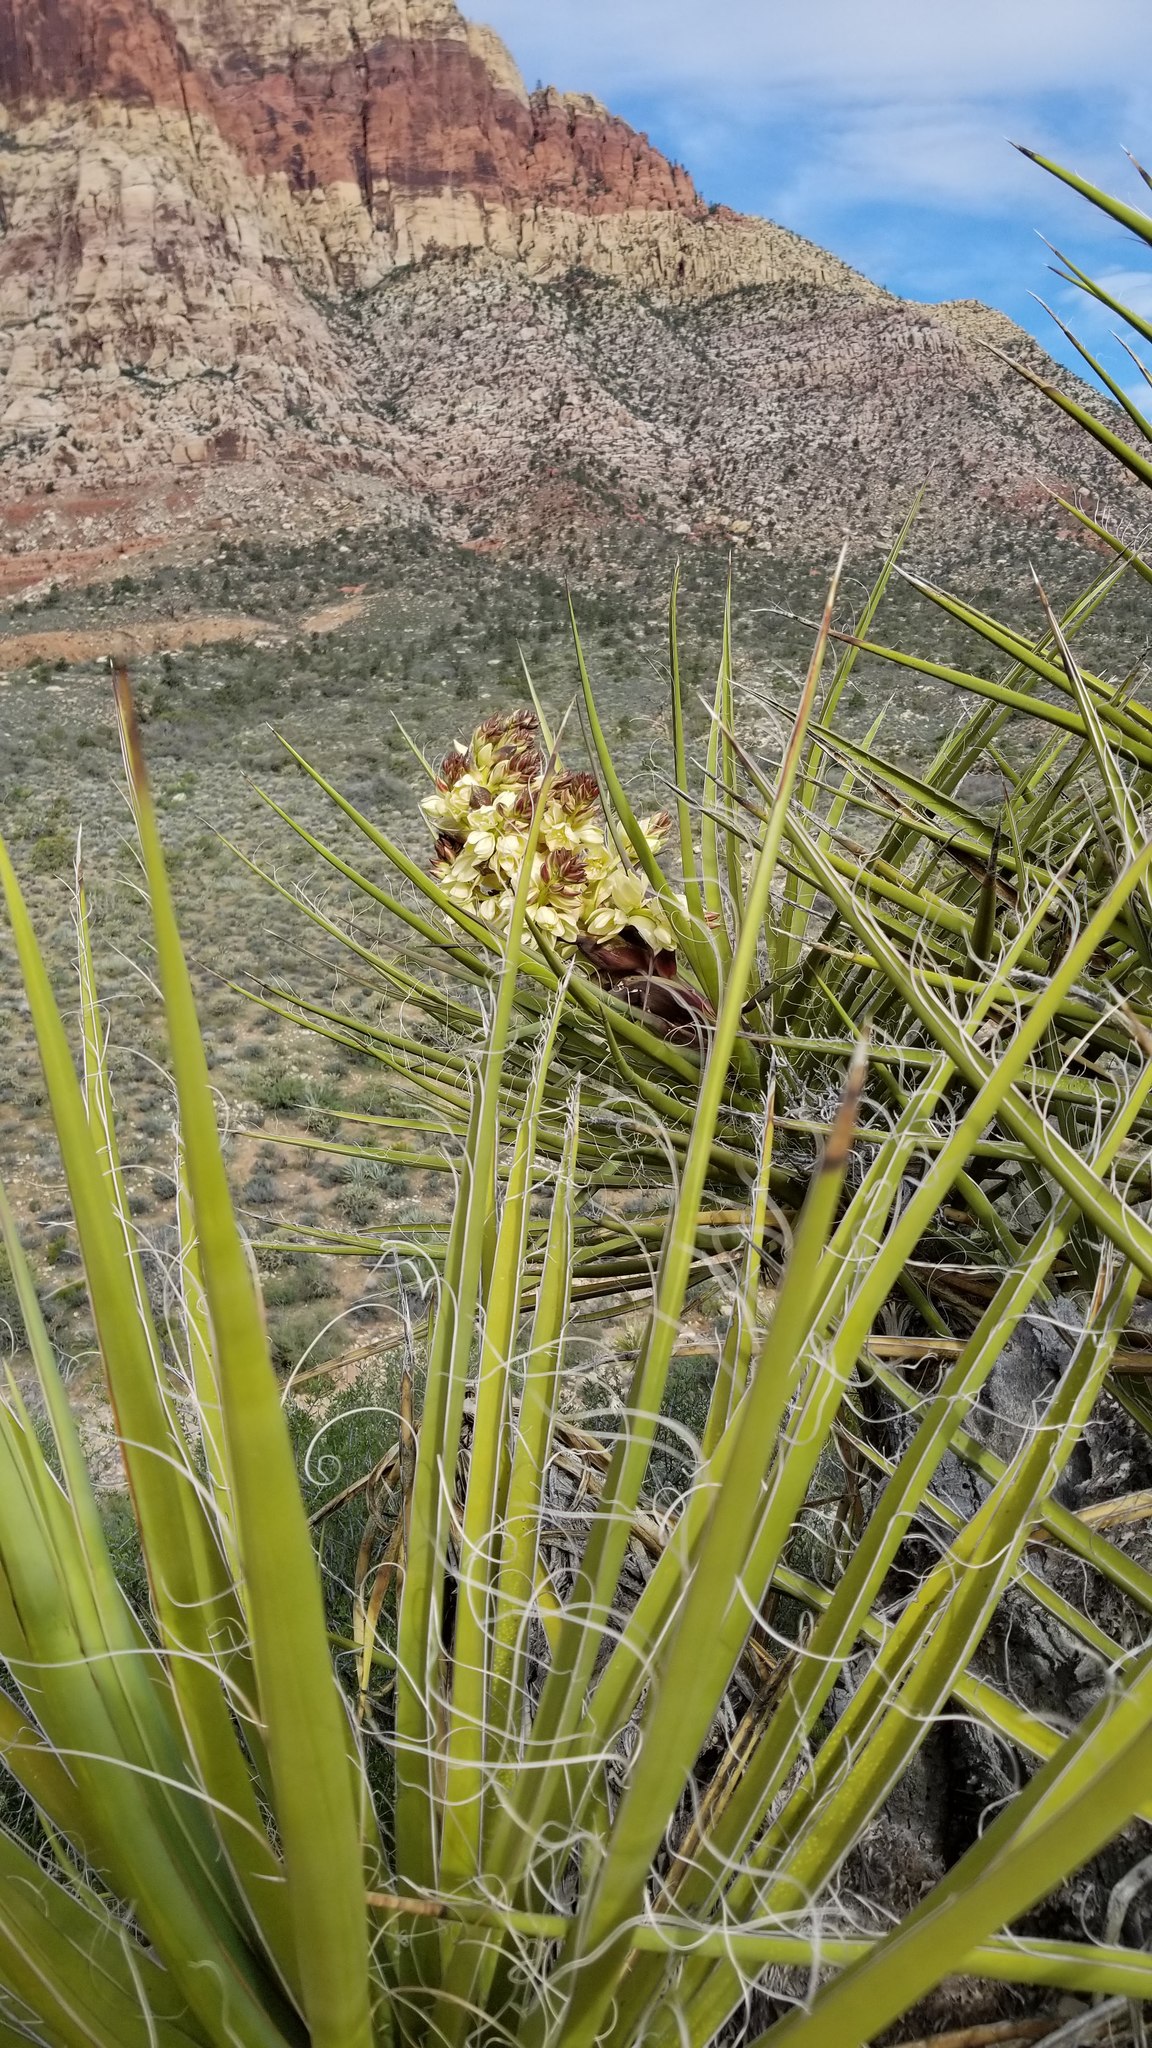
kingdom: Plantae
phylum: Tracheophyta
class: Liliopsida
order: Asparagales
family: Asparagaceae
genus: Yucca
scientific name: Yucca schidigera
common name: Mojave yucca
